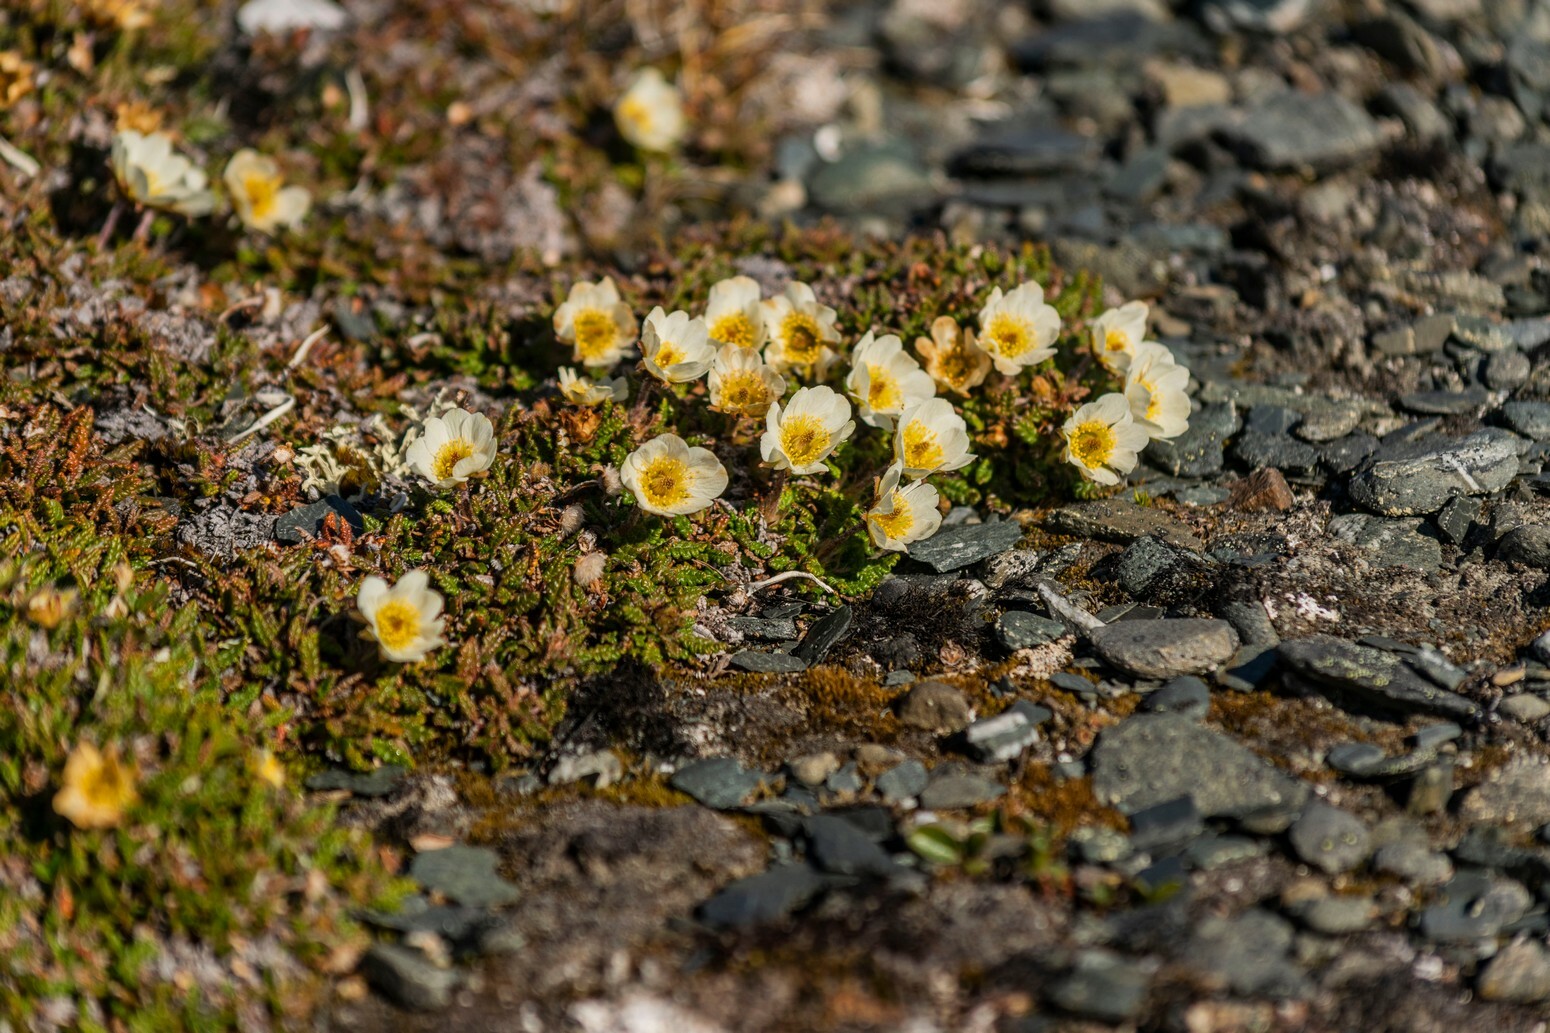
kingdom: Plantae
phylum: Tracheophyta
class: Magnoliopsida
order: Rosales
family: Rosaceae
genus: Dryas
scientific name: Dryas octopetala
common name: Eight-petal mountain-avens
